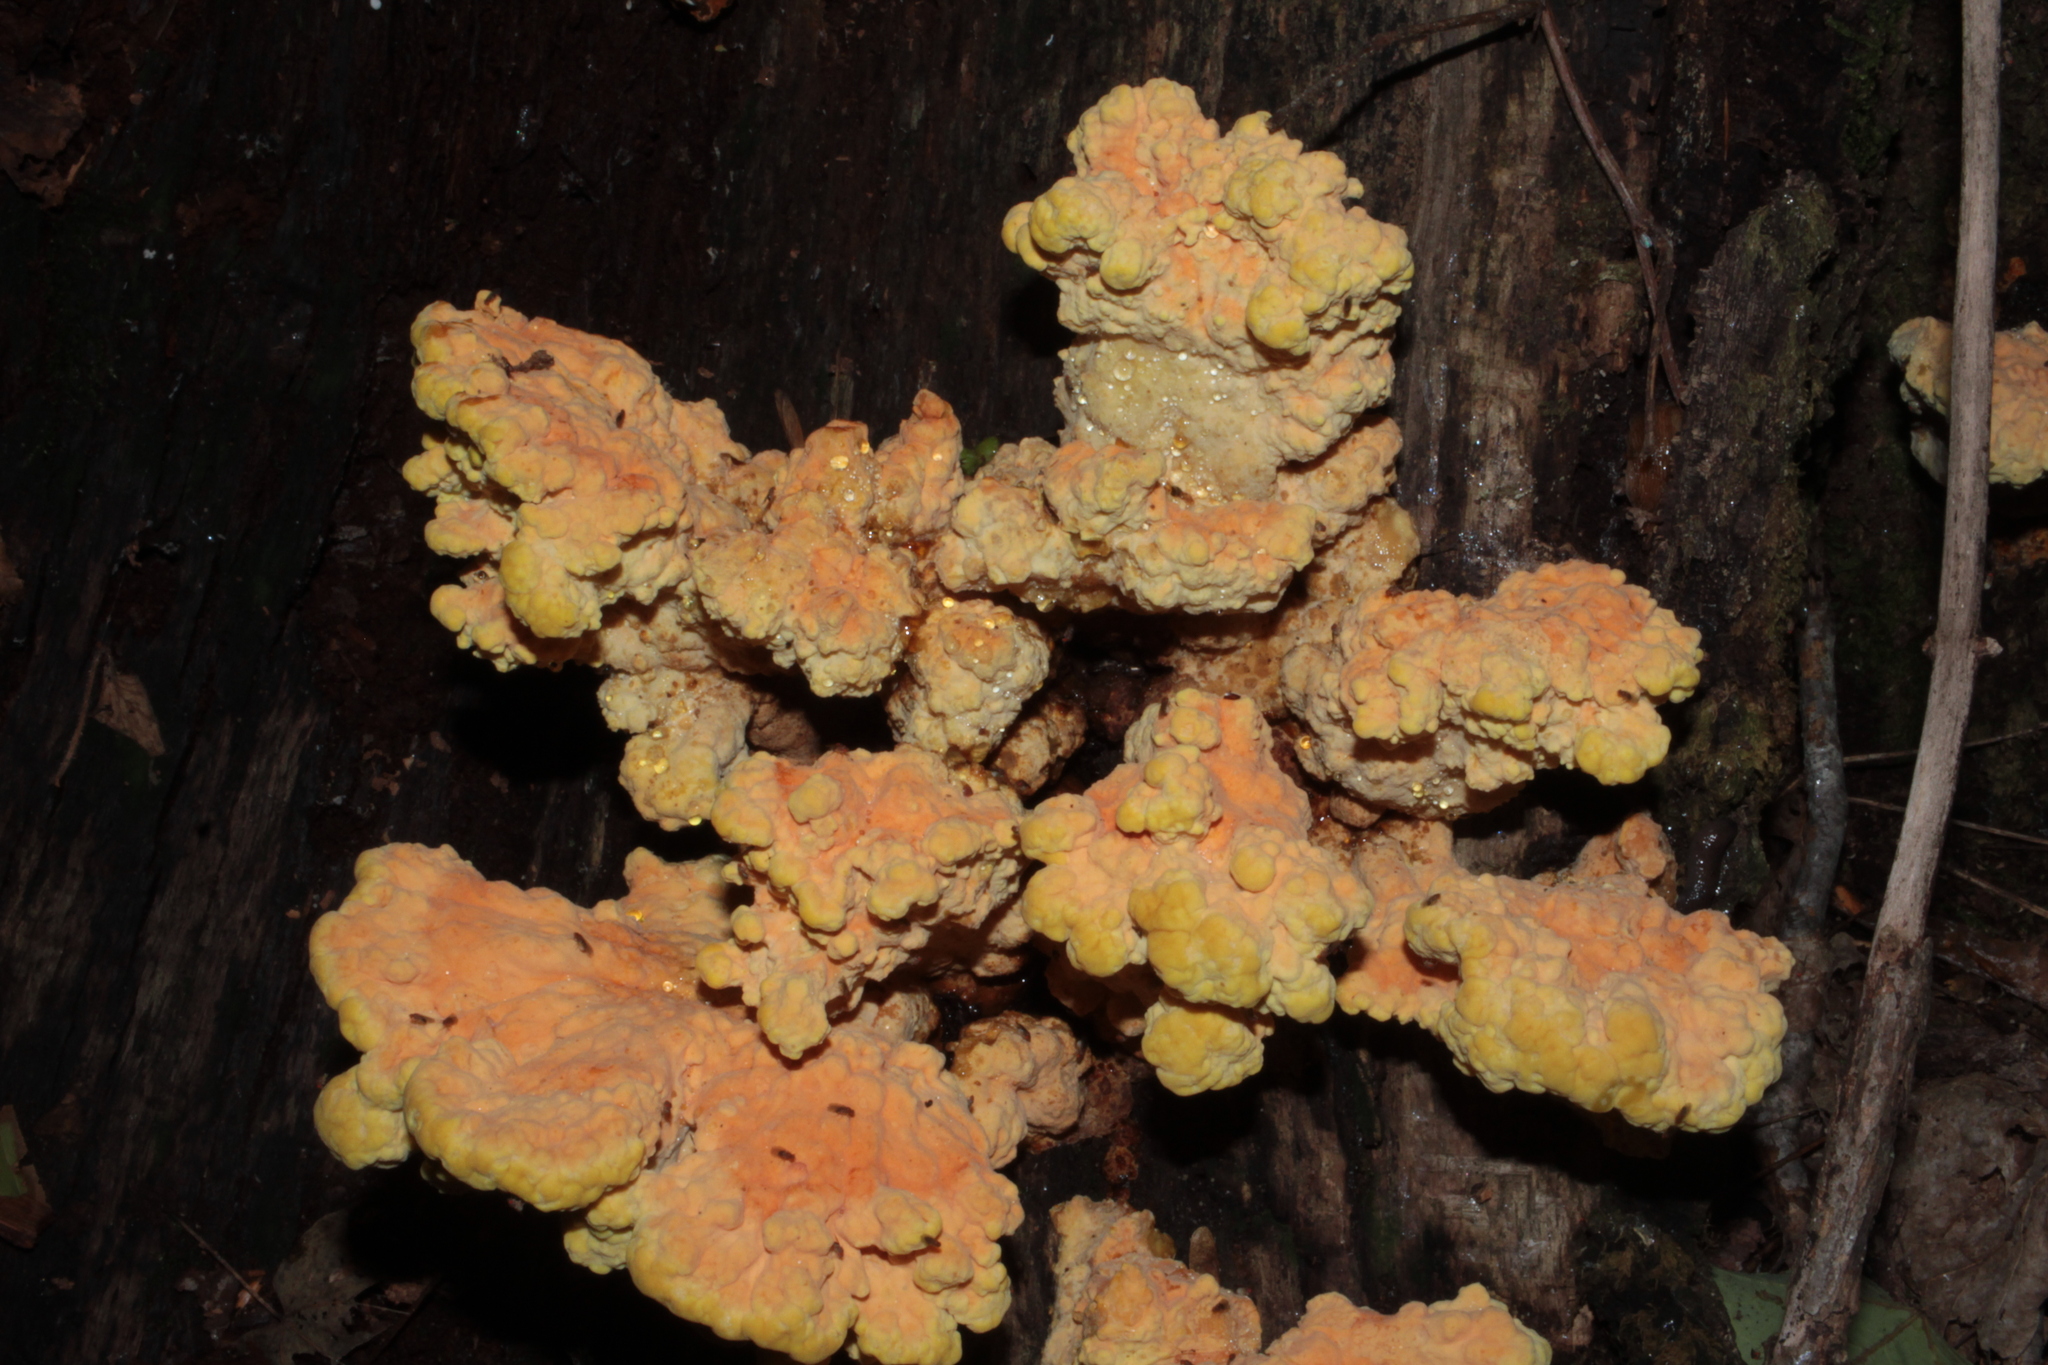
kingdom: Fungi
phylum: Basidiomycota
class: Agaricomycetes
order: Polyporales
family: Laetiporaceae
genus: Laetiporus
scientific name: Laetiporus sulphureus
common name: Chicken of the woods
